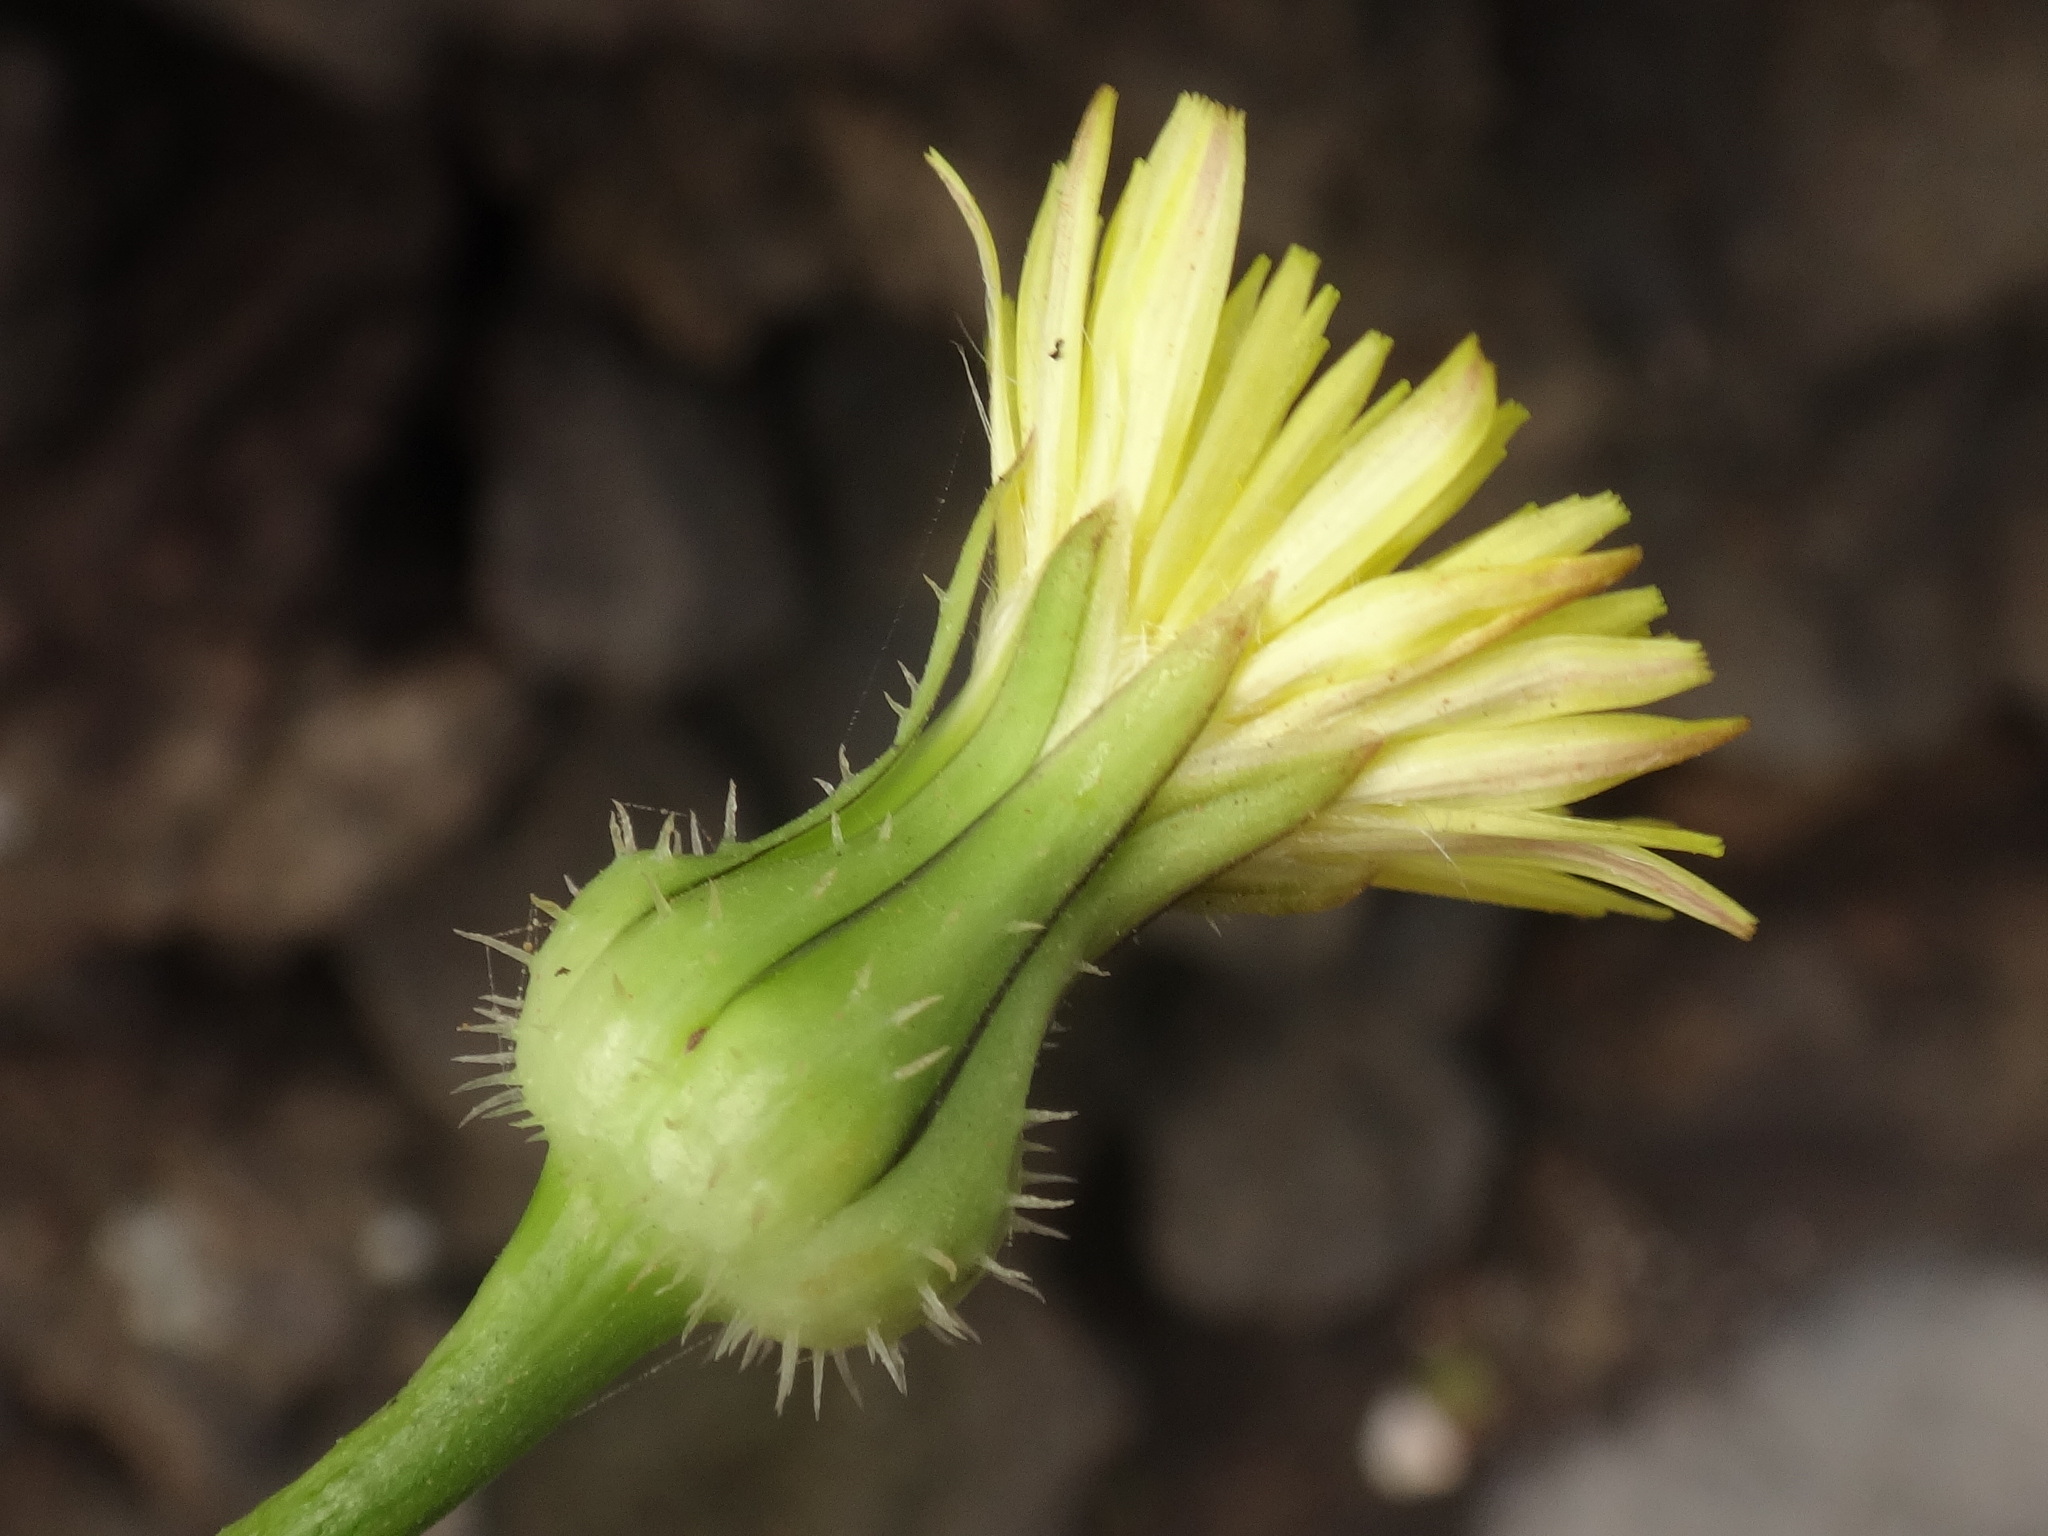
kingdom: Plantae
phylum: Tracheophyta
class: Magnoliopsida
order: Asterales
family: Asteraceae
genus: Urospermum
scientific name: Urospermum picroides
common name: False hawkbit
